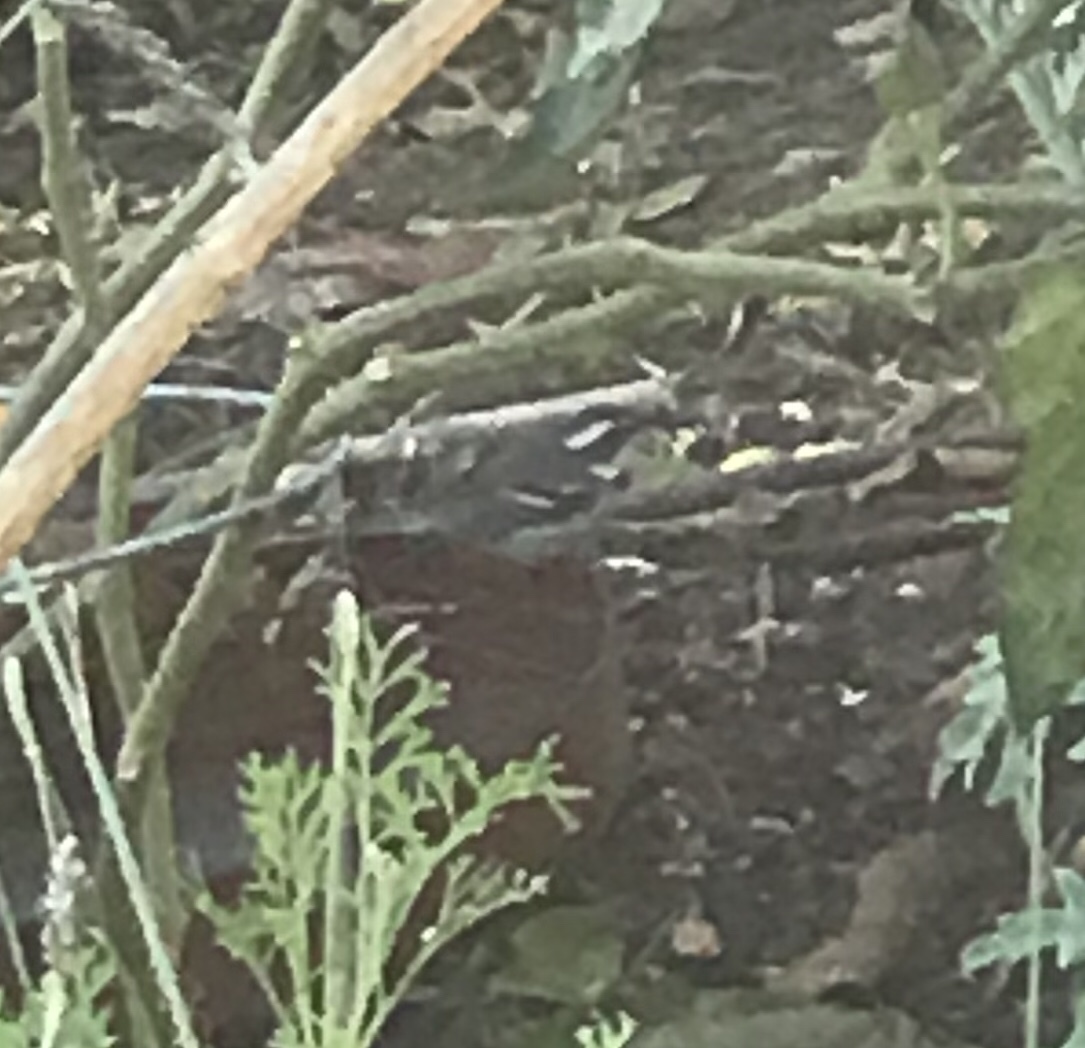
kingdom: Animalia
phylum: Chordata
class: Aves
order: Passeriformes
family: Parulidae
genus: Setophaga
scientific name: Setophaga nigrescens
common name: Black-throated gray warbler
